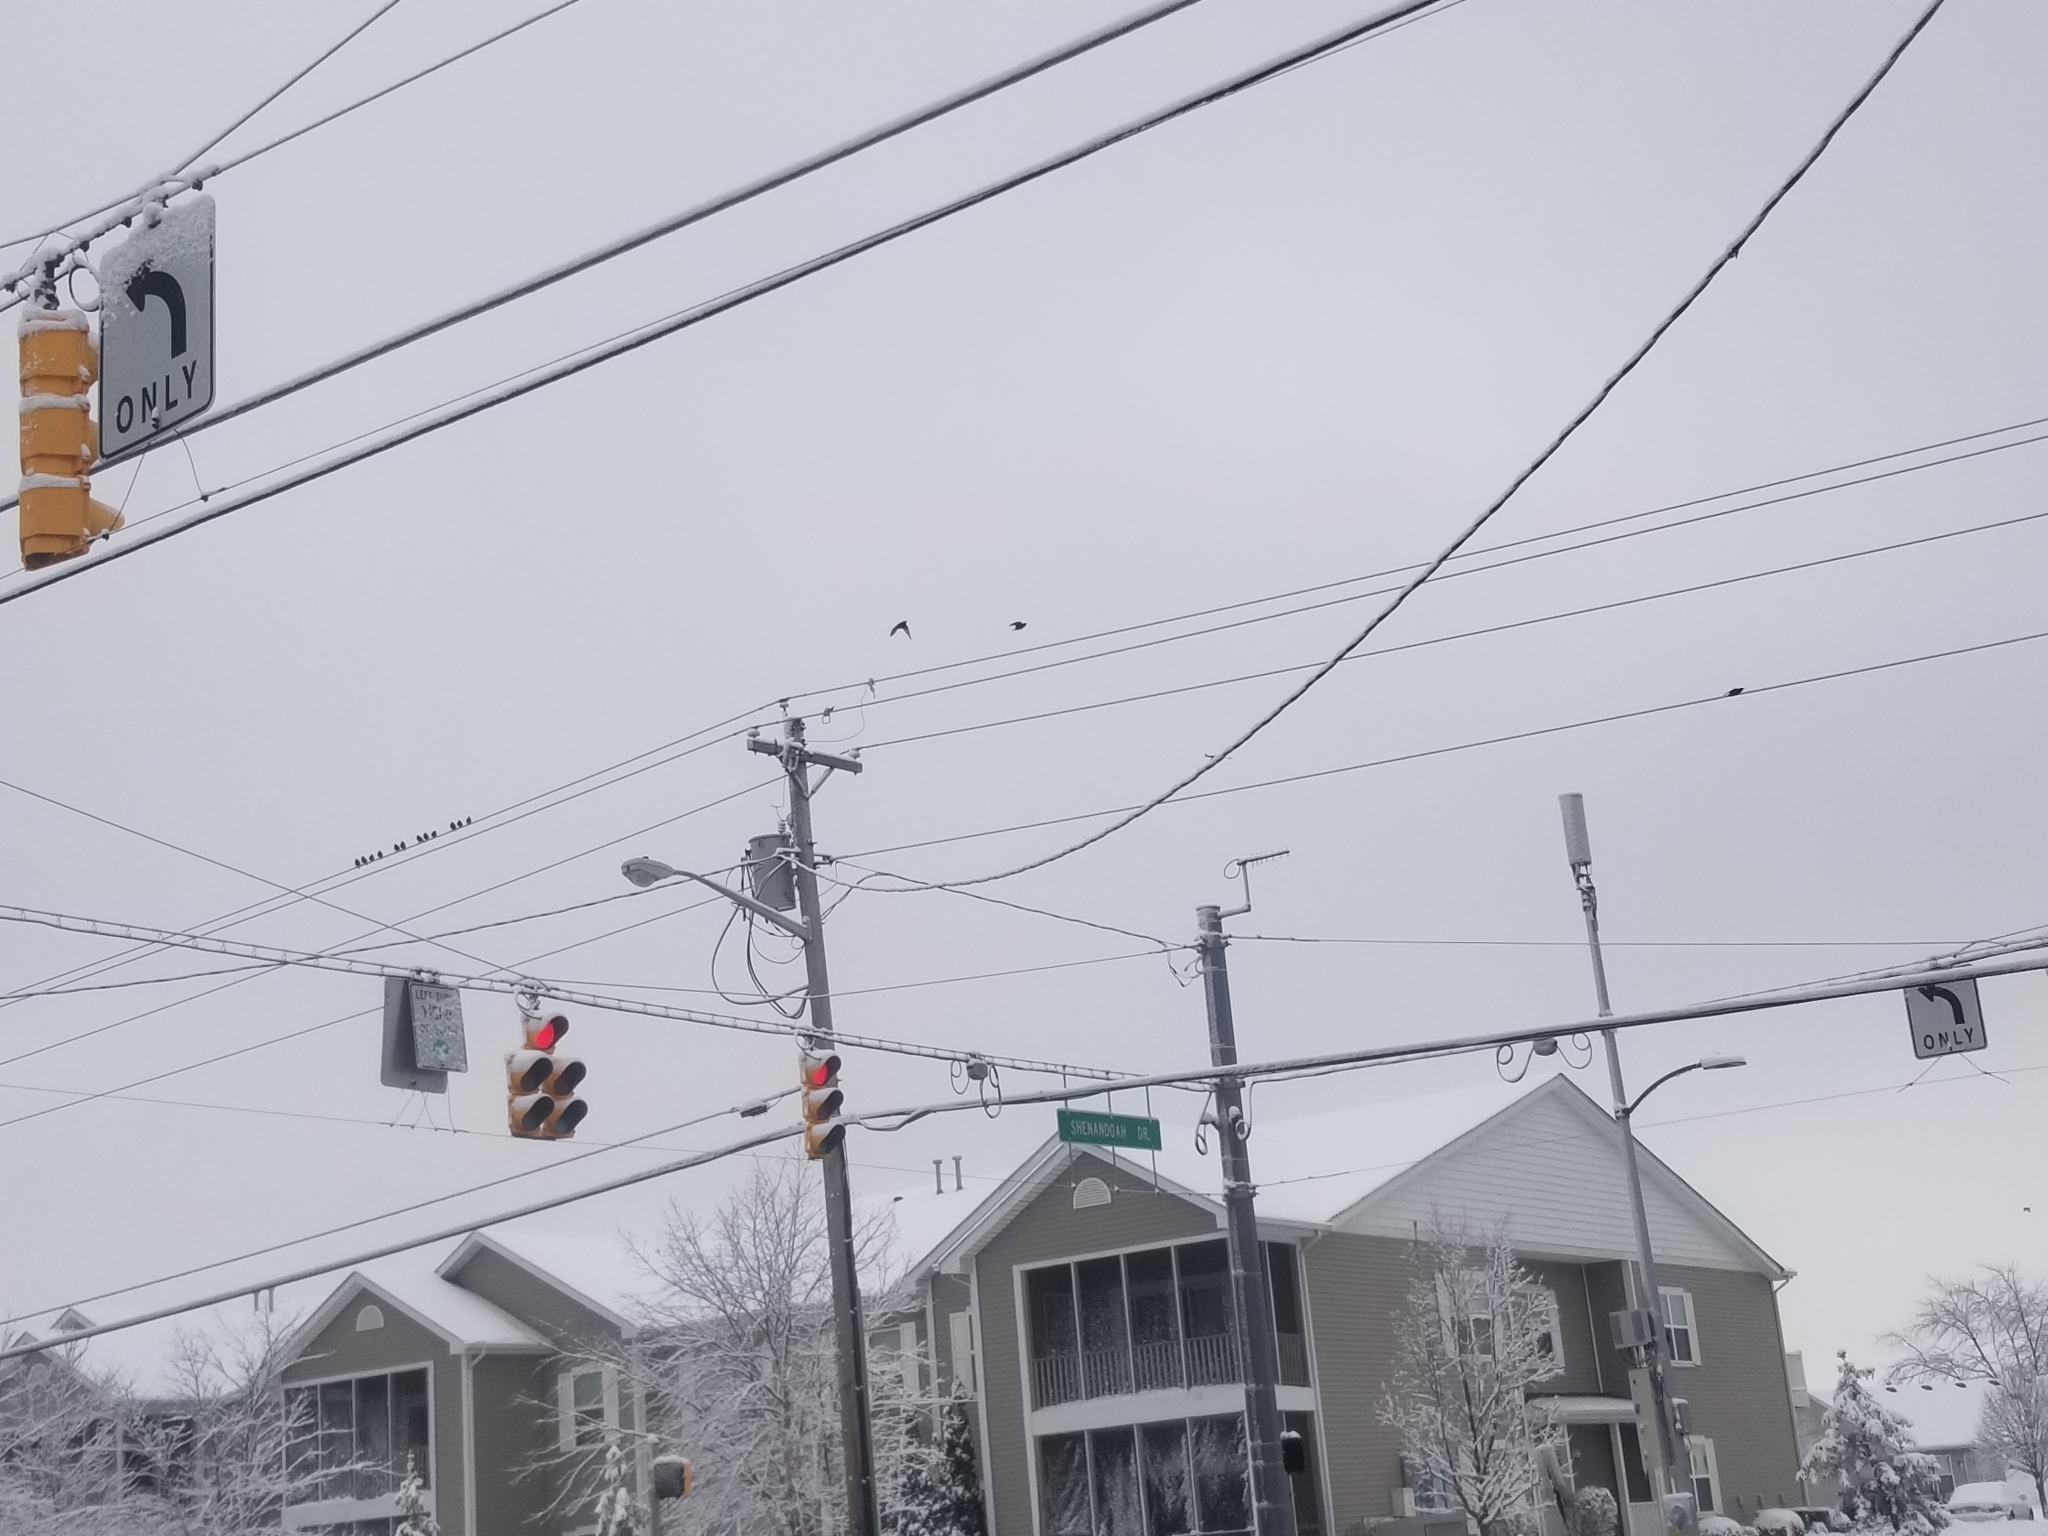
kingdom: Animalia
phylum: Chordata
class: Aves
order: Passeriformes
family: Sturnidae
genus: Sturnus
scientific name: Sturnus vulgaris
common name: Common starling
